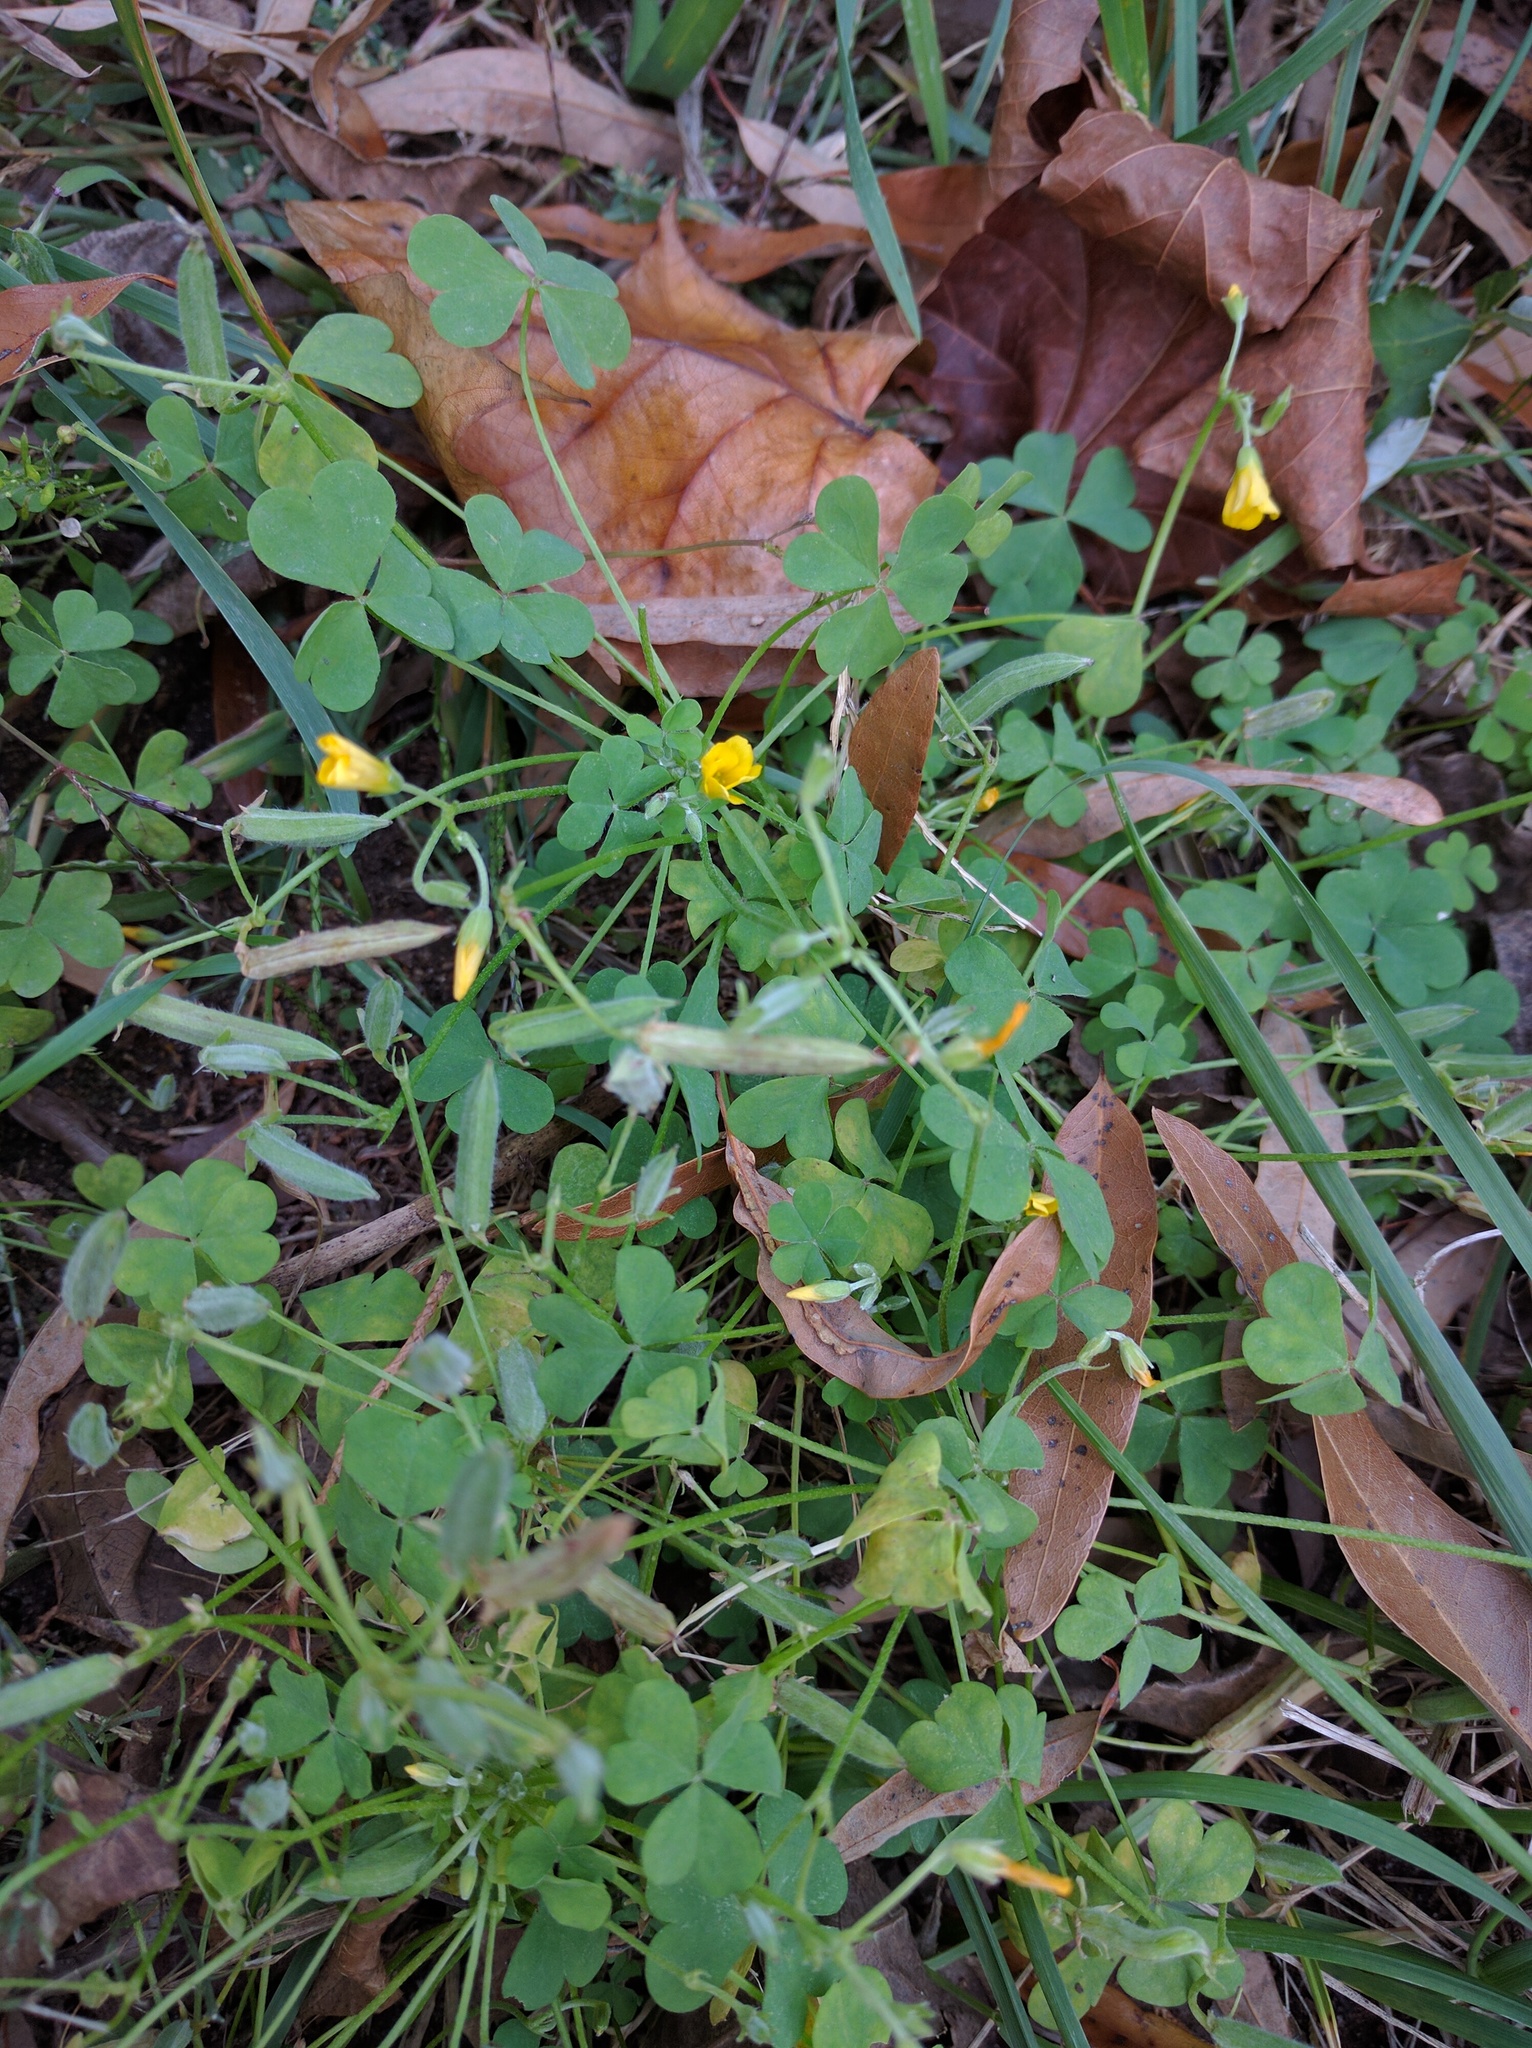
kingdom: Plantae
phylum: Tracheophyta
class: Magnoliopsida
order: Oxalidales
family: Oxalidaceae
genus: Oxalis
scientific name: Oxalis stricta
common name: Upright yellow-sorrel
